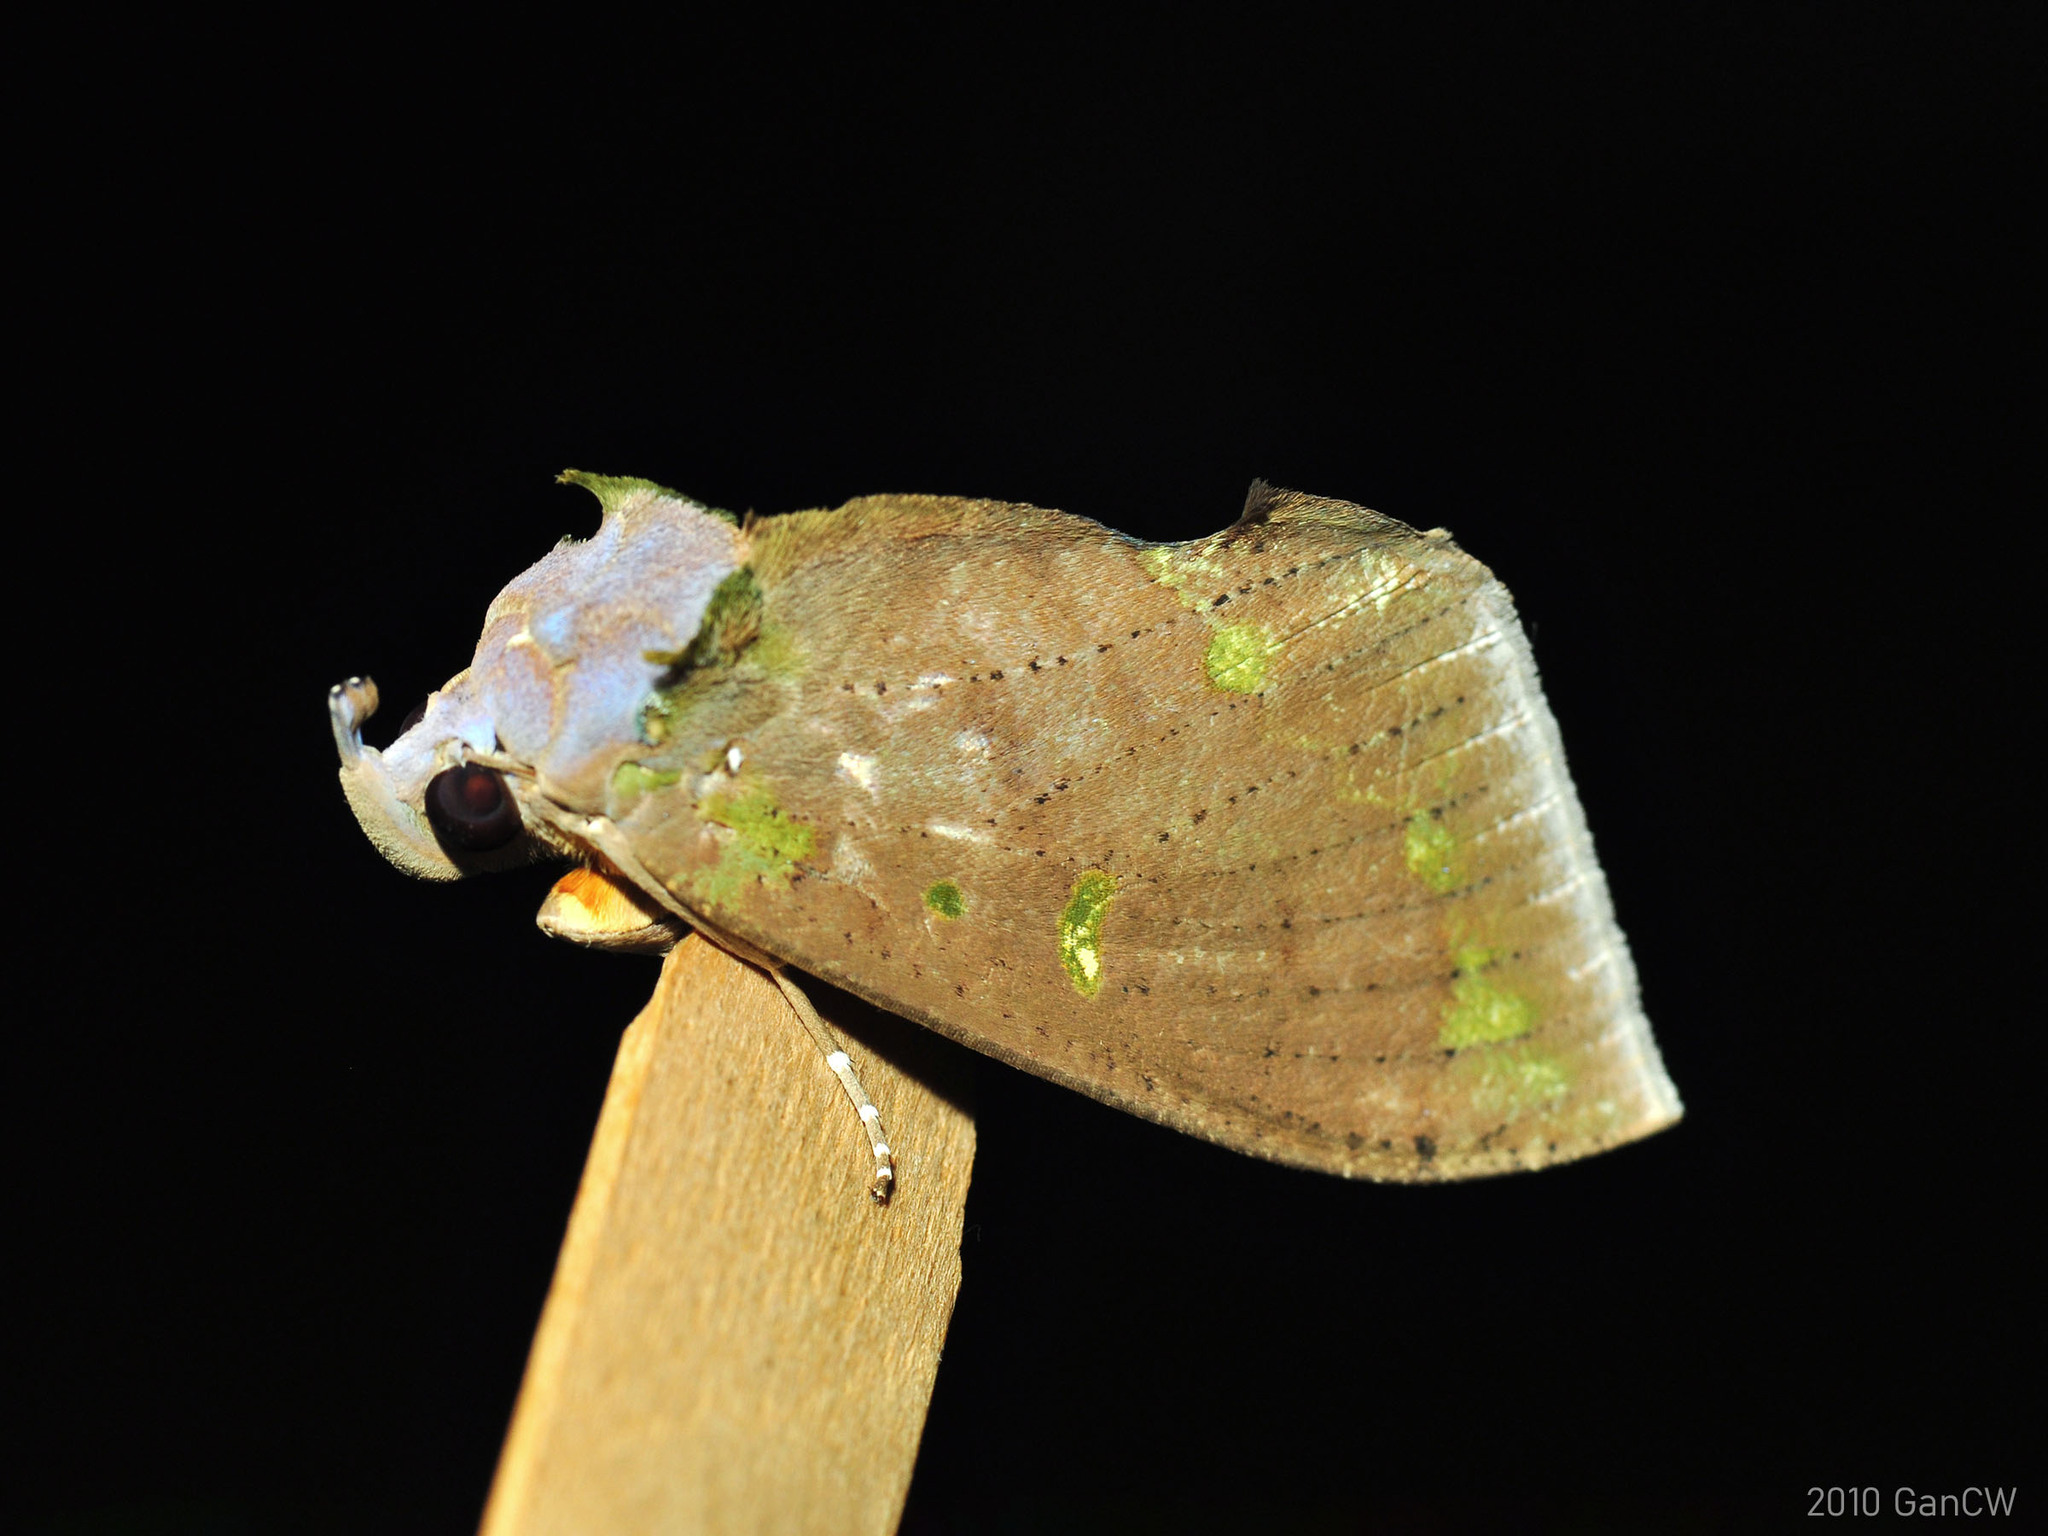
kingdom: Animalia
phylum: Arthropoda
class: Insecta
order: Lepidoptera
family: Erebidae
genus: Eudocima
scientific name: Eudocima discrepans
